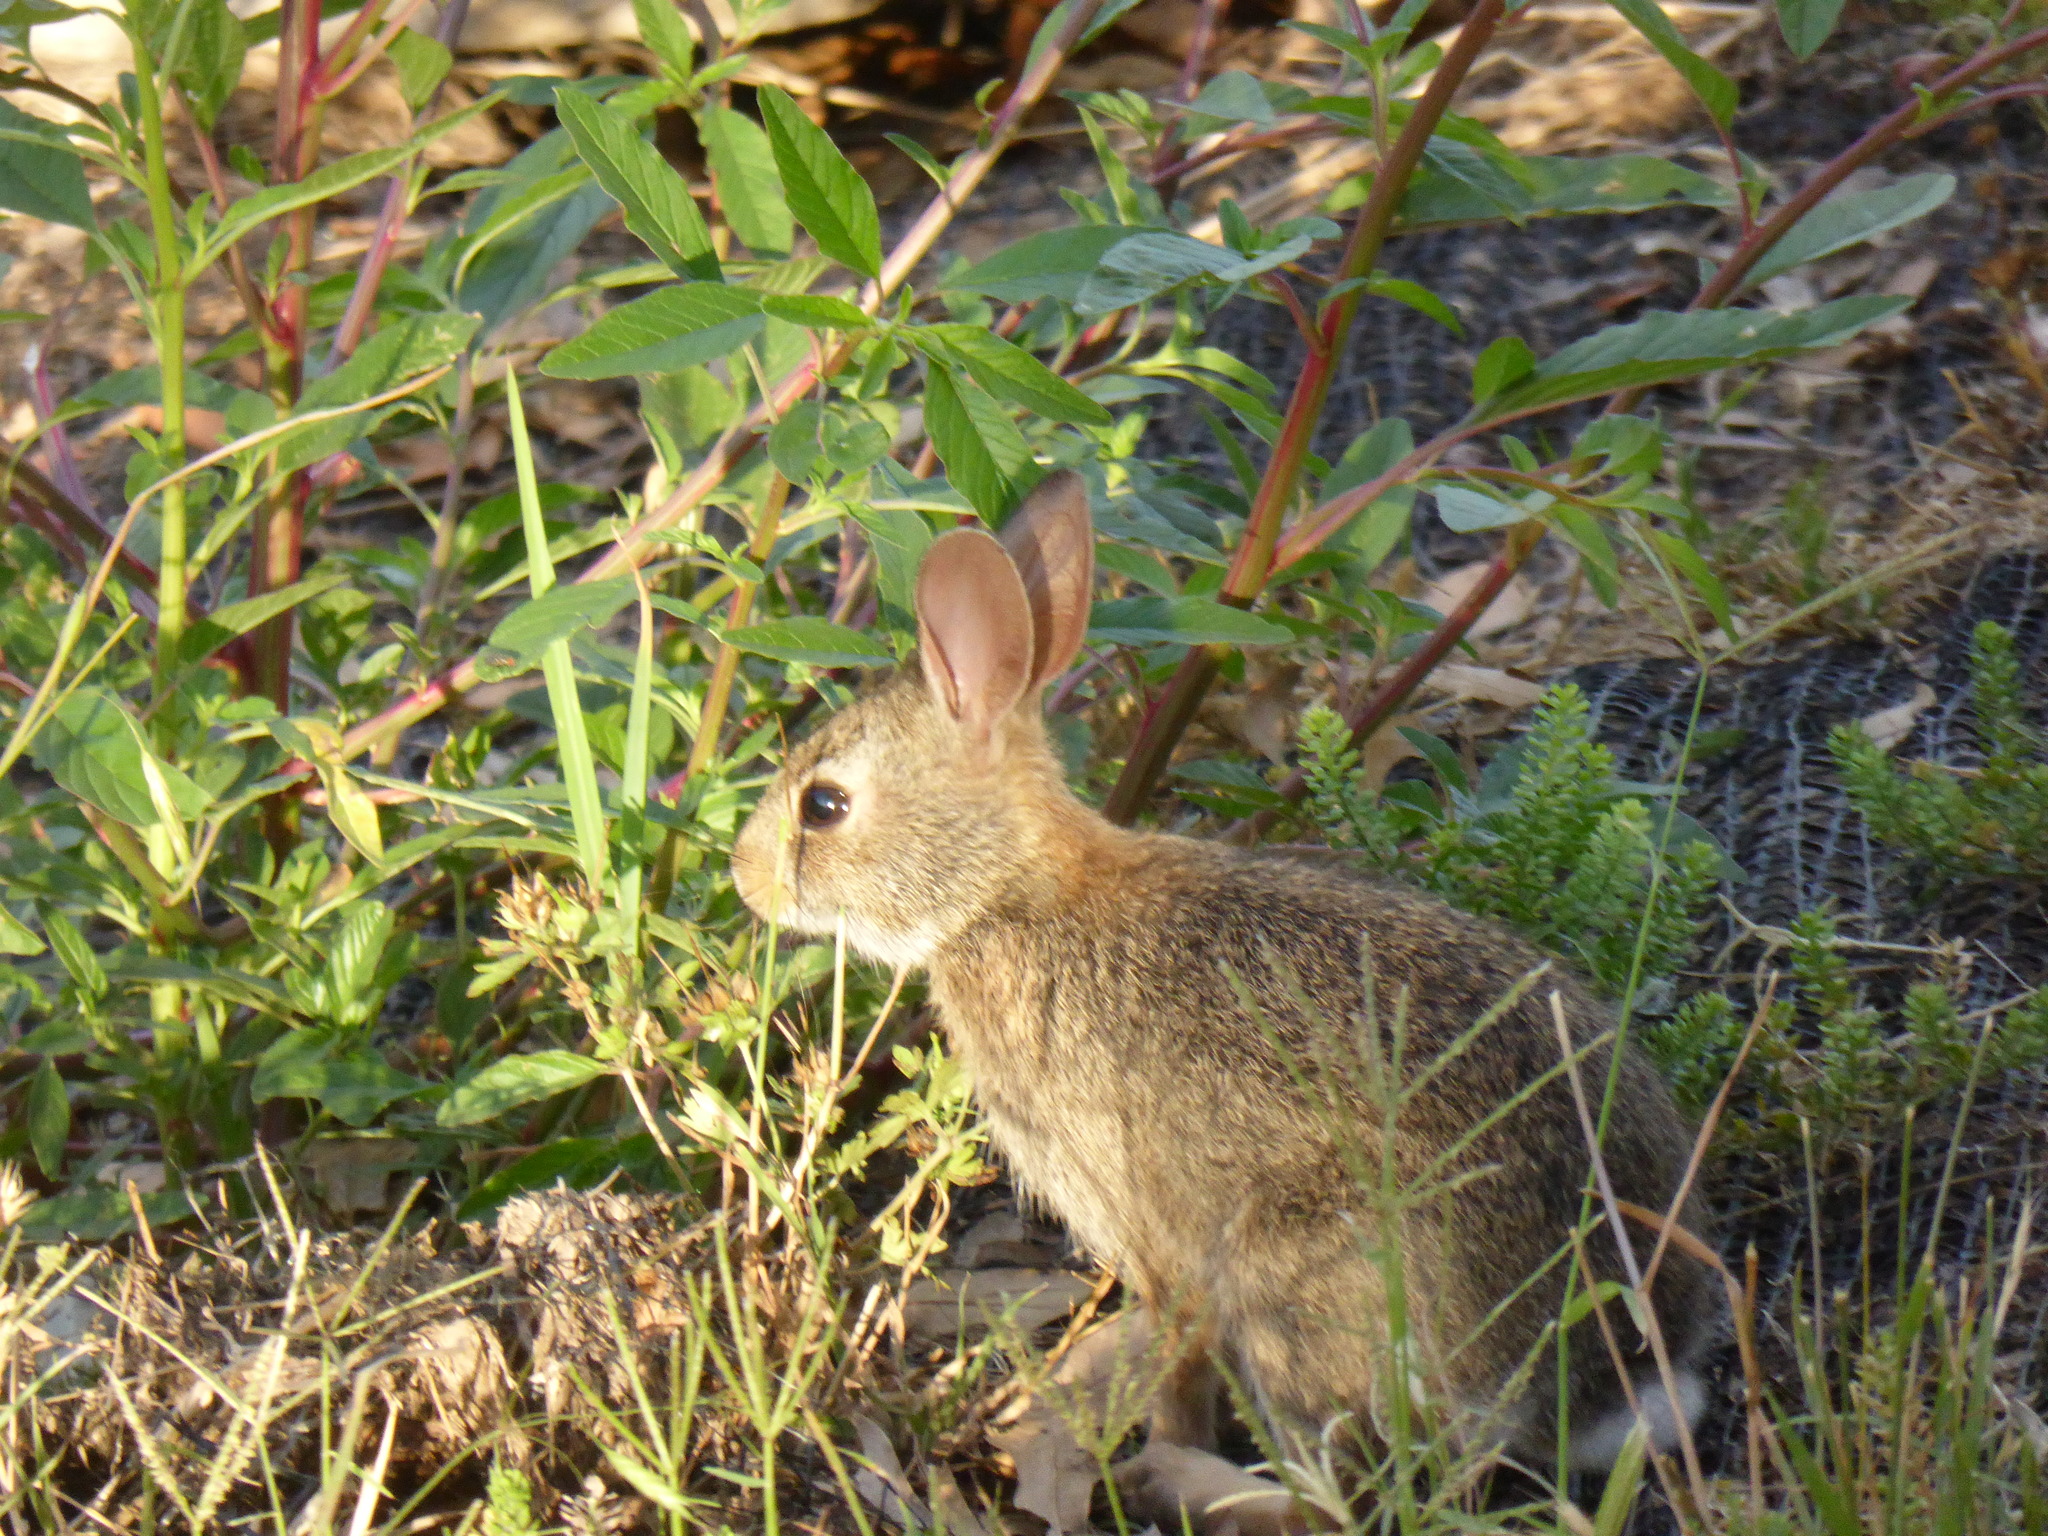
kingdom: Animalia
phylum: Chordata
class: Mammalia
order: Lagomorpha
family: Leporidae
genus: Sylvilagus
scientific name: Sylvilagus floridanus
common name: Eastern cottontail
